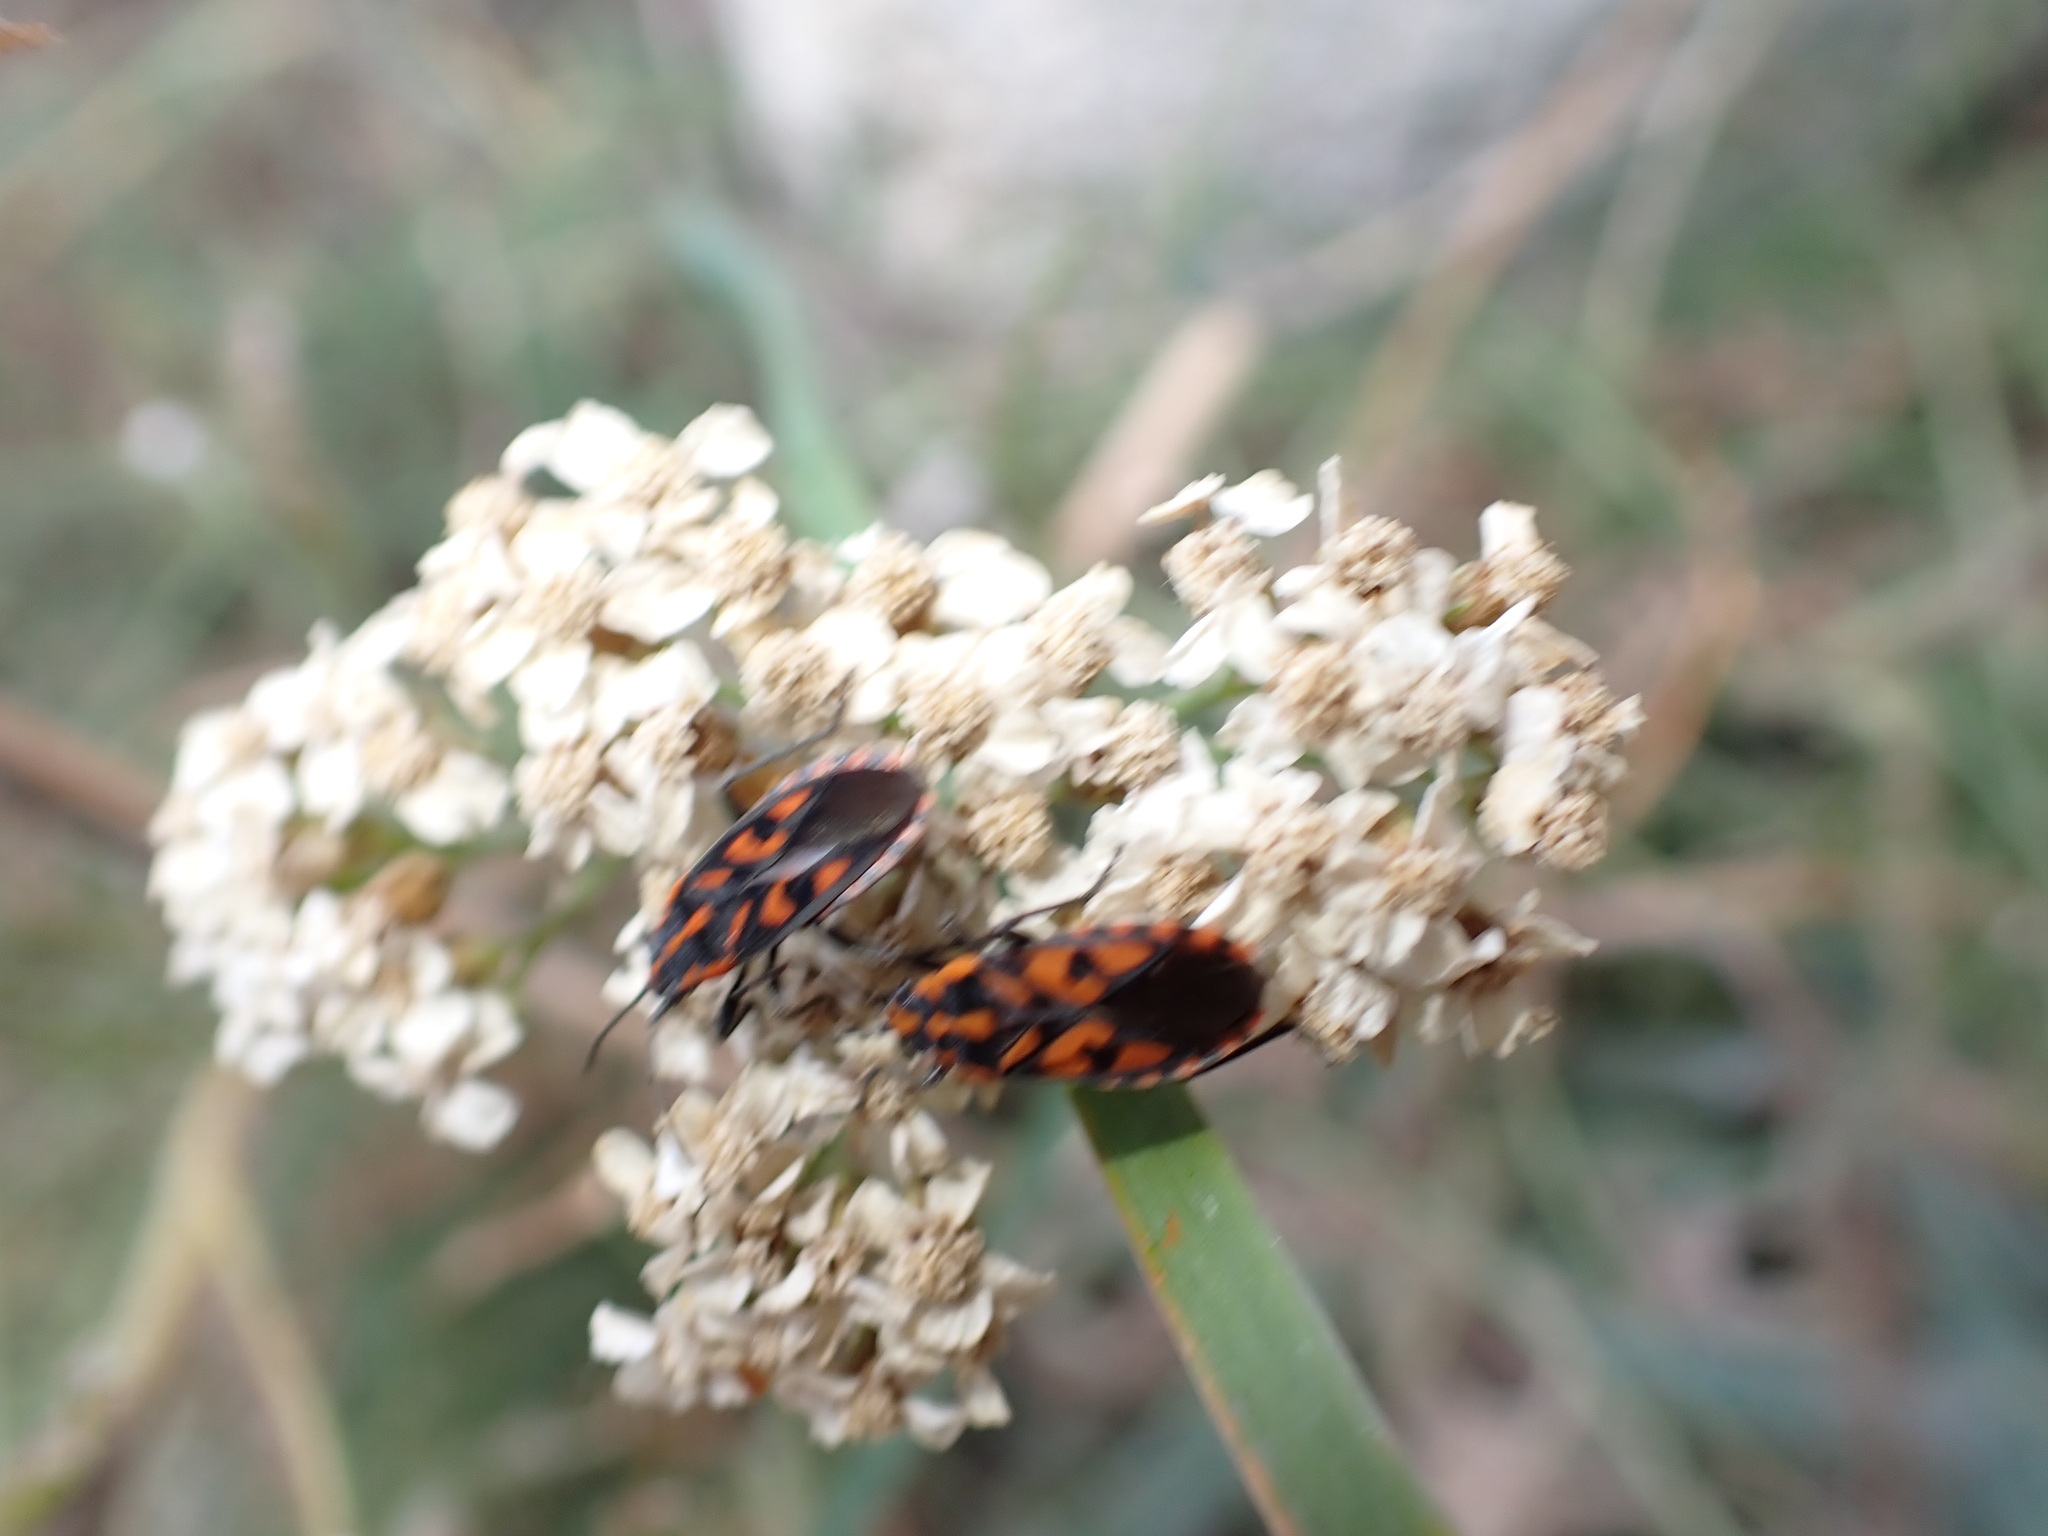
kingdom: Plantae
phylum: Tracheophyta
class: Magnoliopsida
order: Asterales
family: Asteraceae
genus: Achillea
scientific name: Achillea odorata
